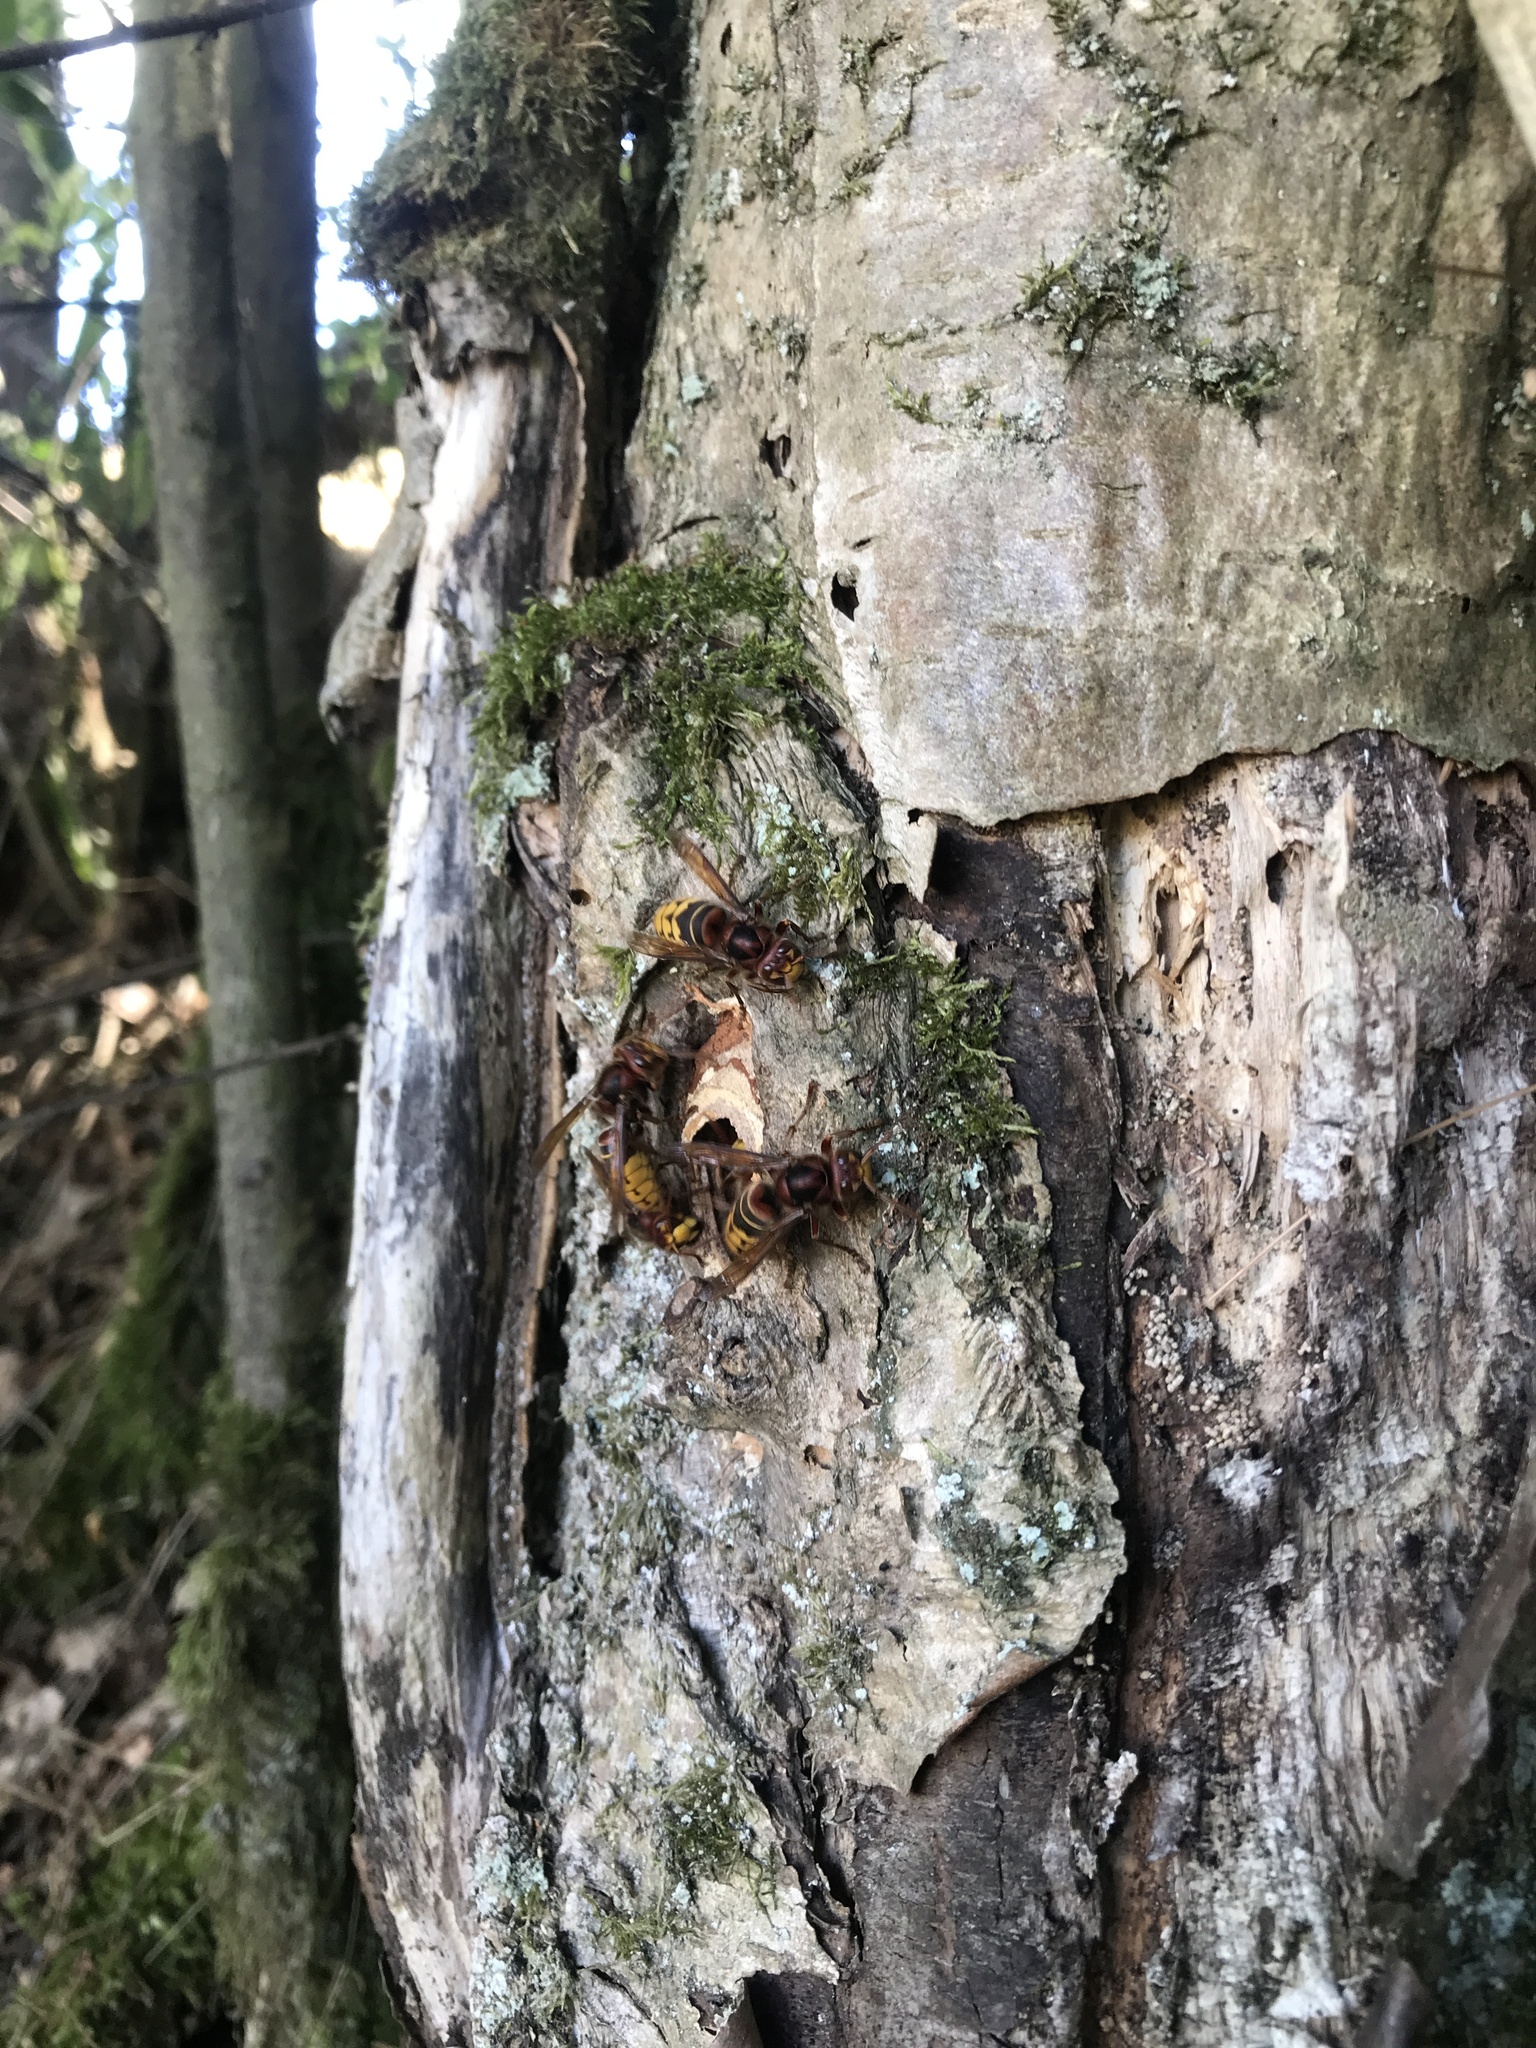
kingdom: Animalia
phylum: Arthropoda
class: Insecta
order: Hymenoptera
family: Vespidae
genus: Vespa
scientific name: Vespa crabro
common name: Hornet
